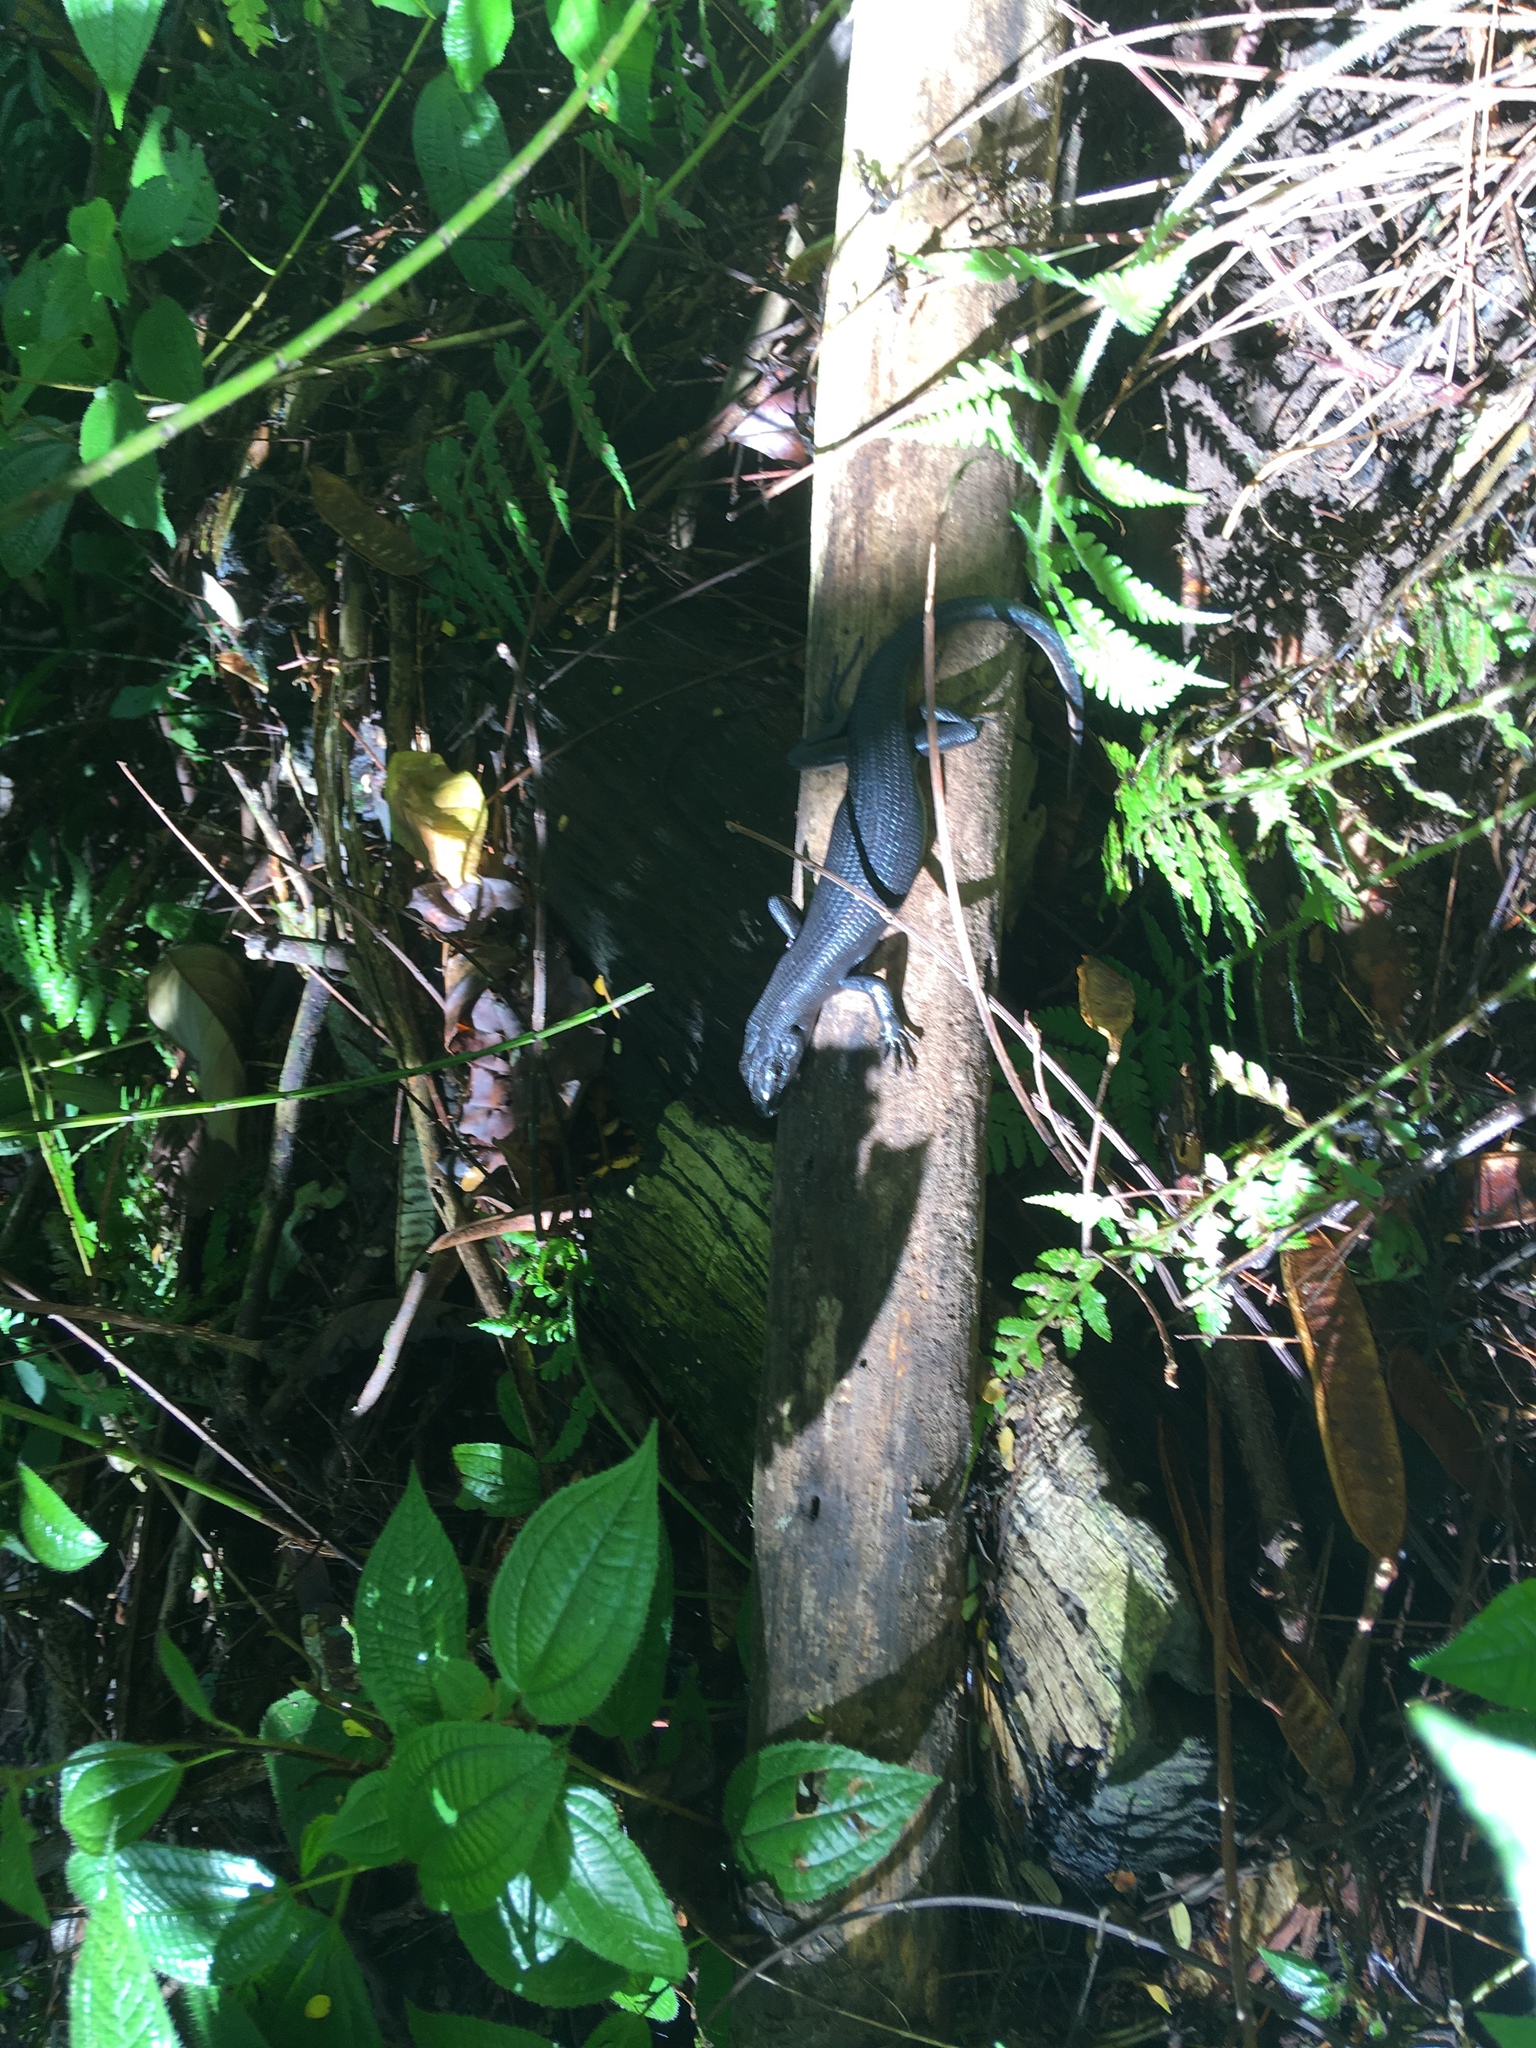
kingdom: Animalia
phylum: Chordata
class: Squamata
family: Scincidae
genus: Emoia
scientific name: Emoia nigra
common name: Black emo skink
